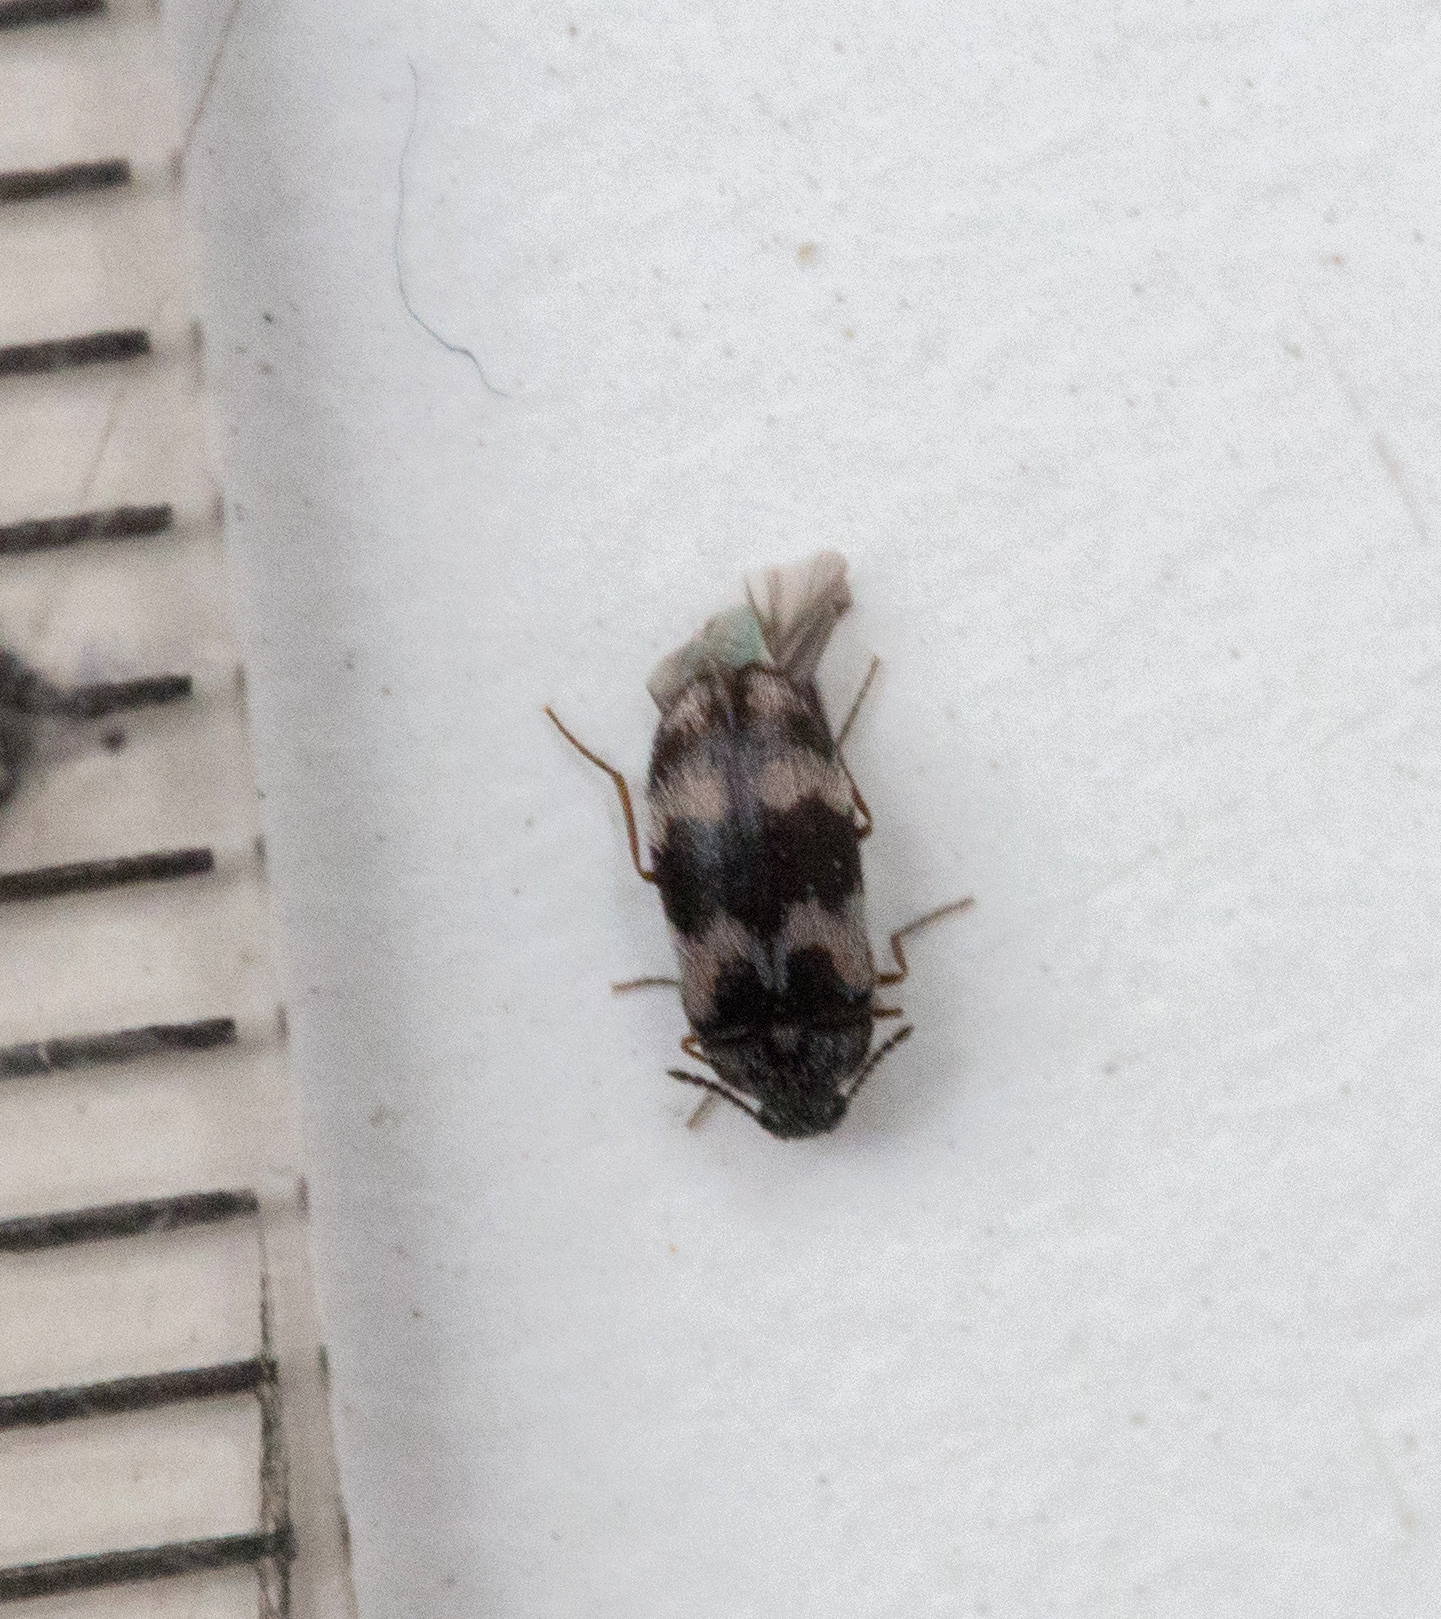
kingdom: Animalia
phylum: Arthropoda
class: Insecta
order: Coleoptera
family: Dermestidae
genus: Trogoderma
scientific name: Trogoderma angustum
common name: Skin beetle
